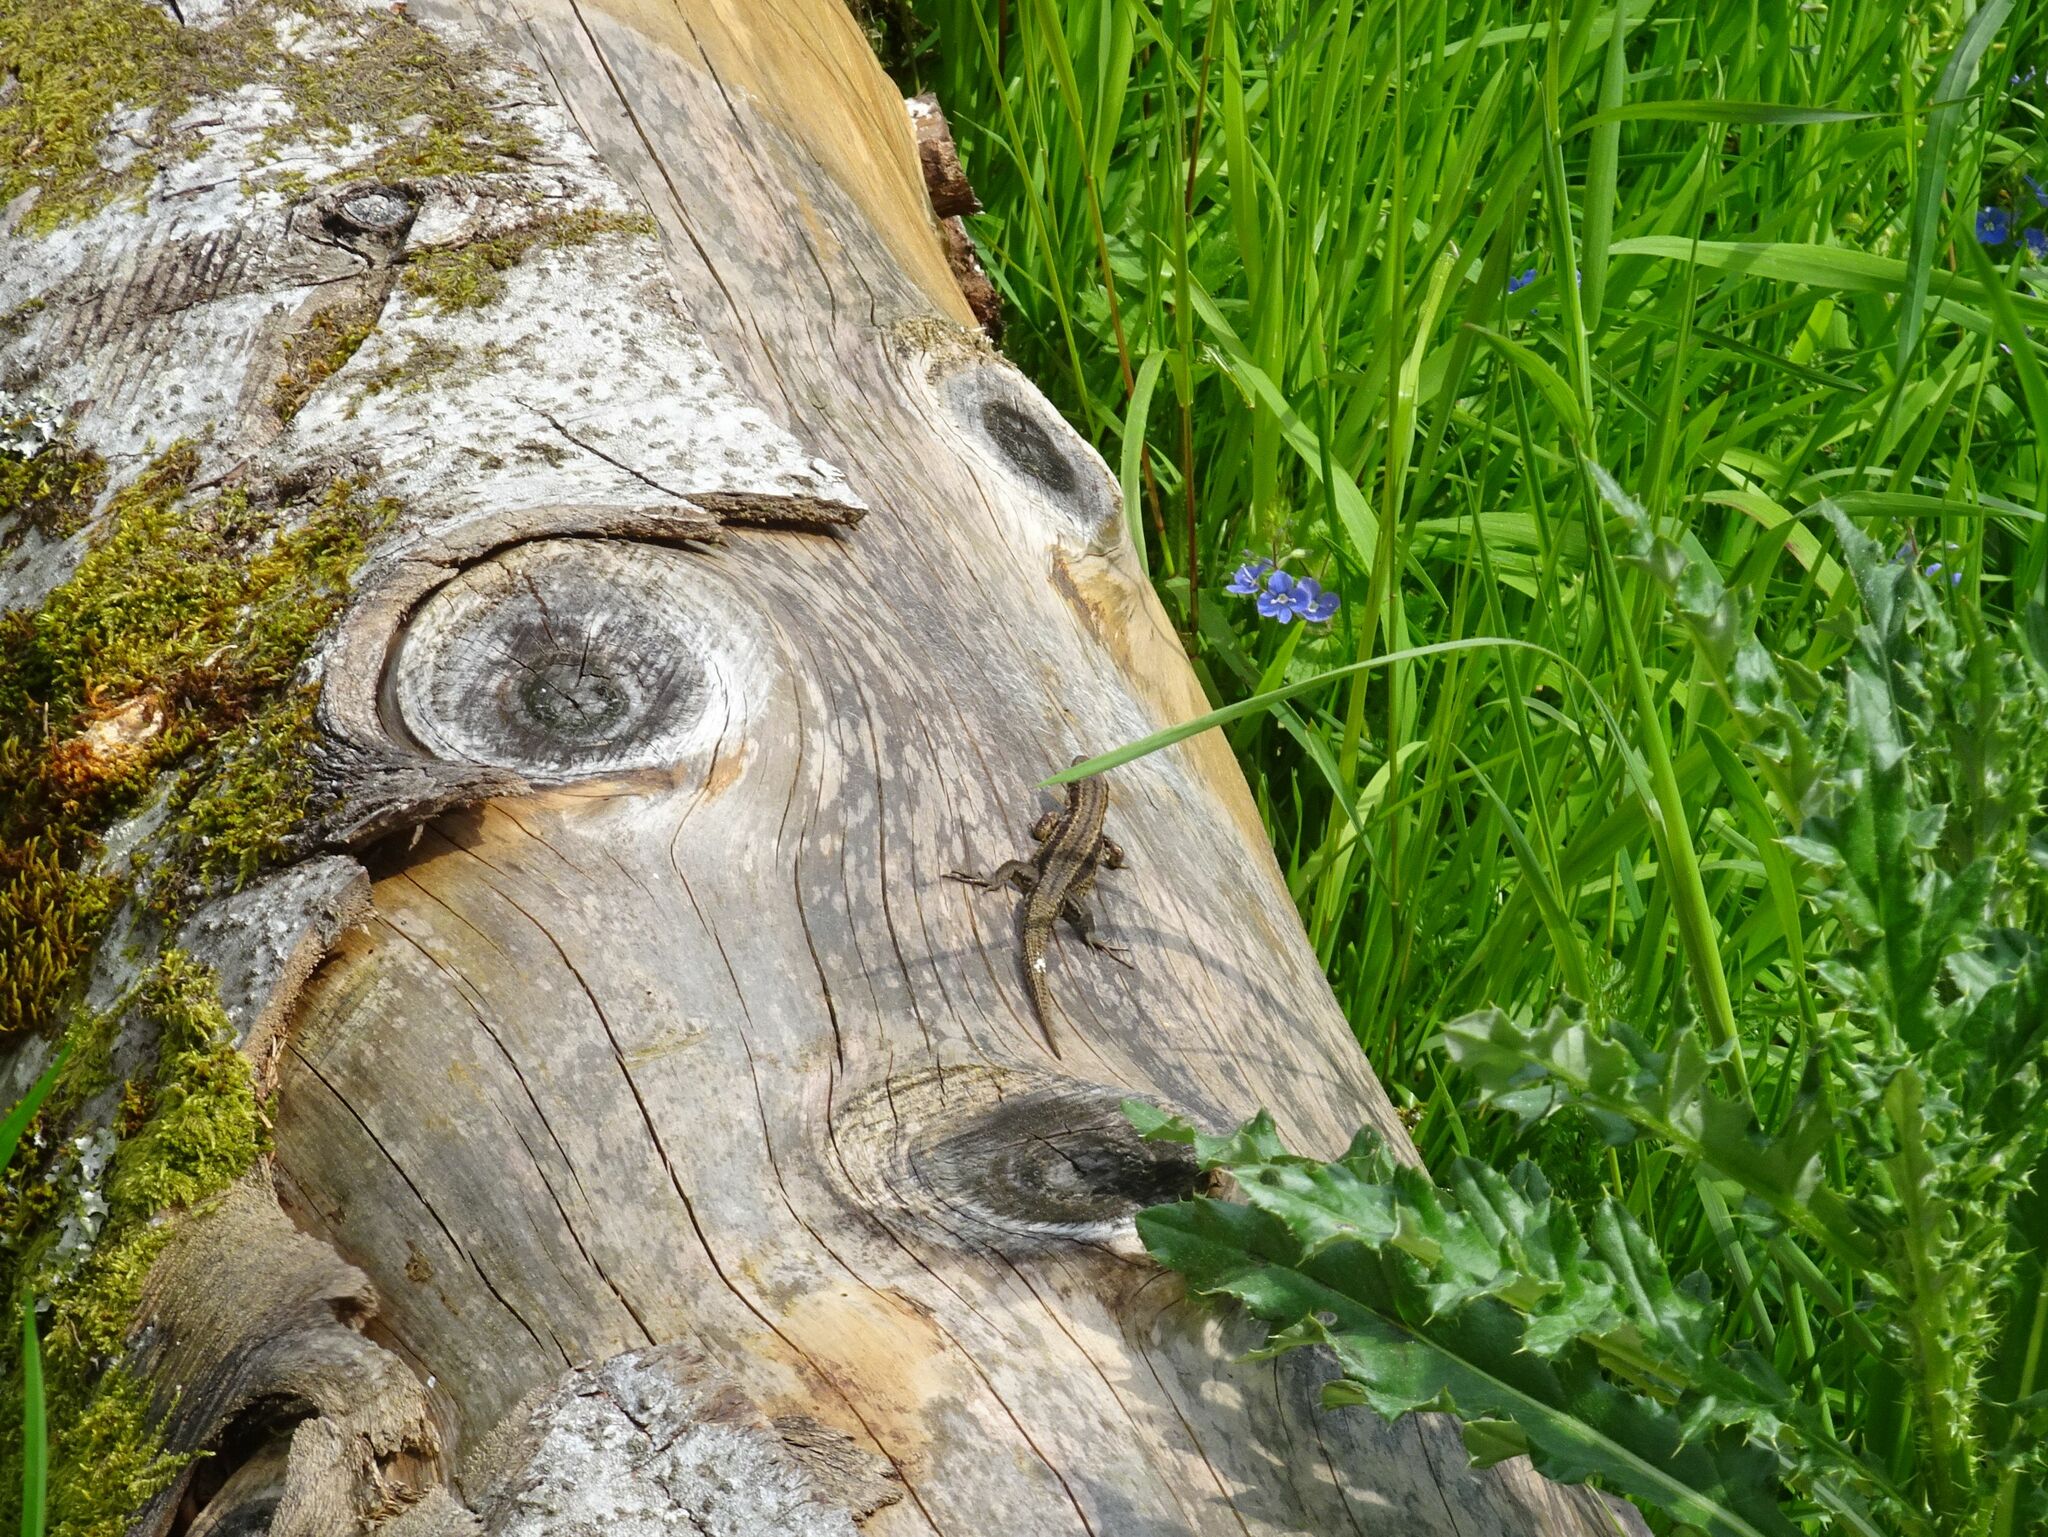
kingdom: Animalia
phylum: Chordata
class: Squamata
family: Lacertidae
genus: Zootoca
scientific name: Zootoca vivipara
